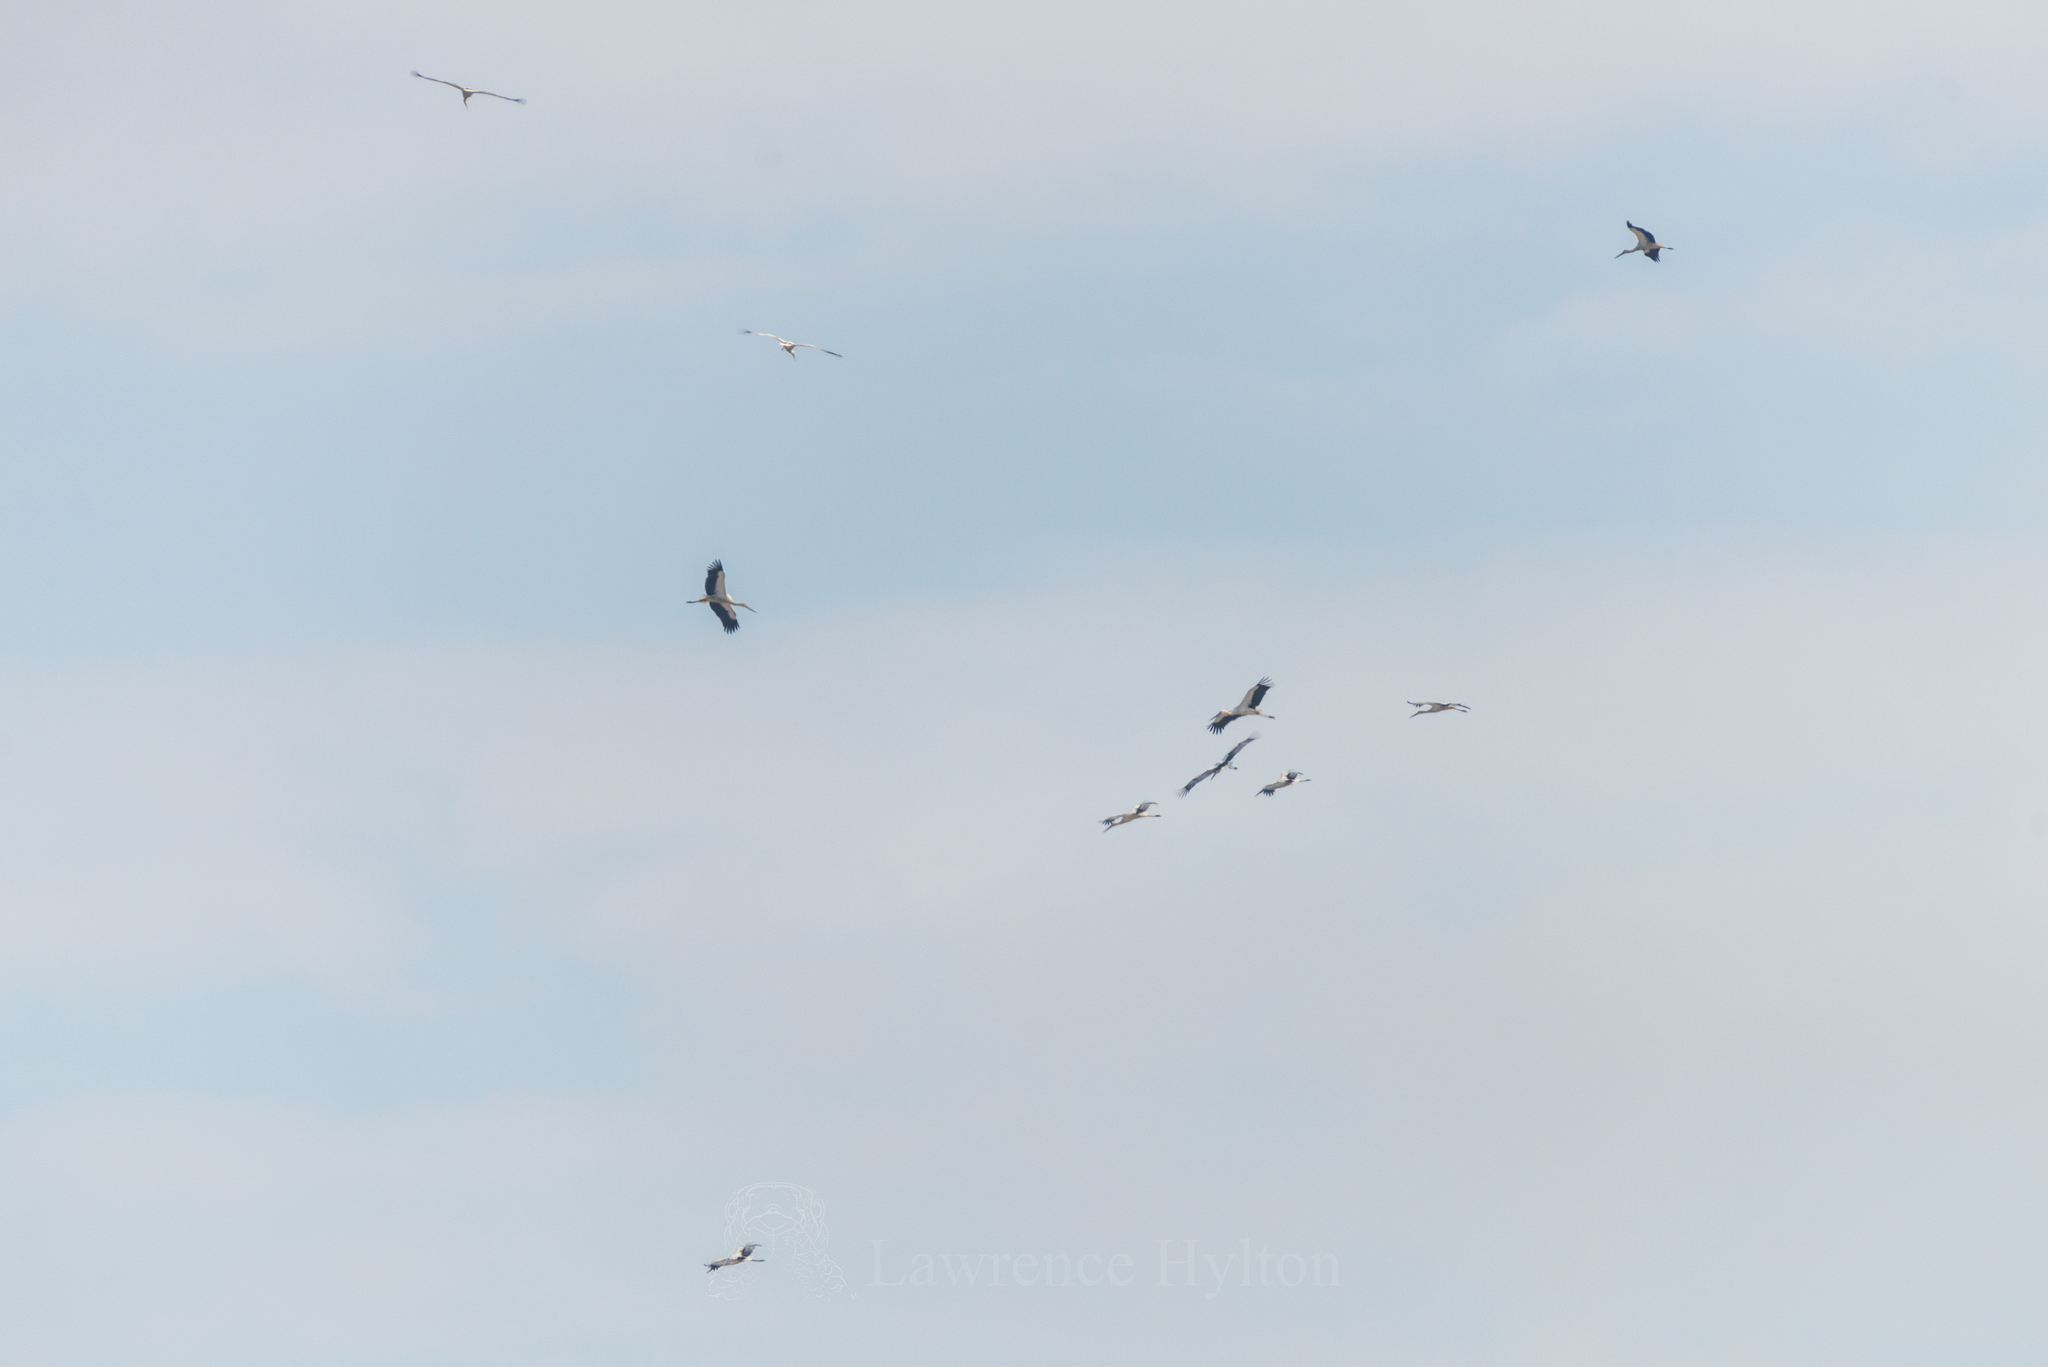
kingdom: Animalia
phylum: Chordata
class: Aves
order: Ciconiiformes
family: Ciconiidae
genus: Ciconia
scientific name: Ciconia boyciana
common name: Oriental stork
